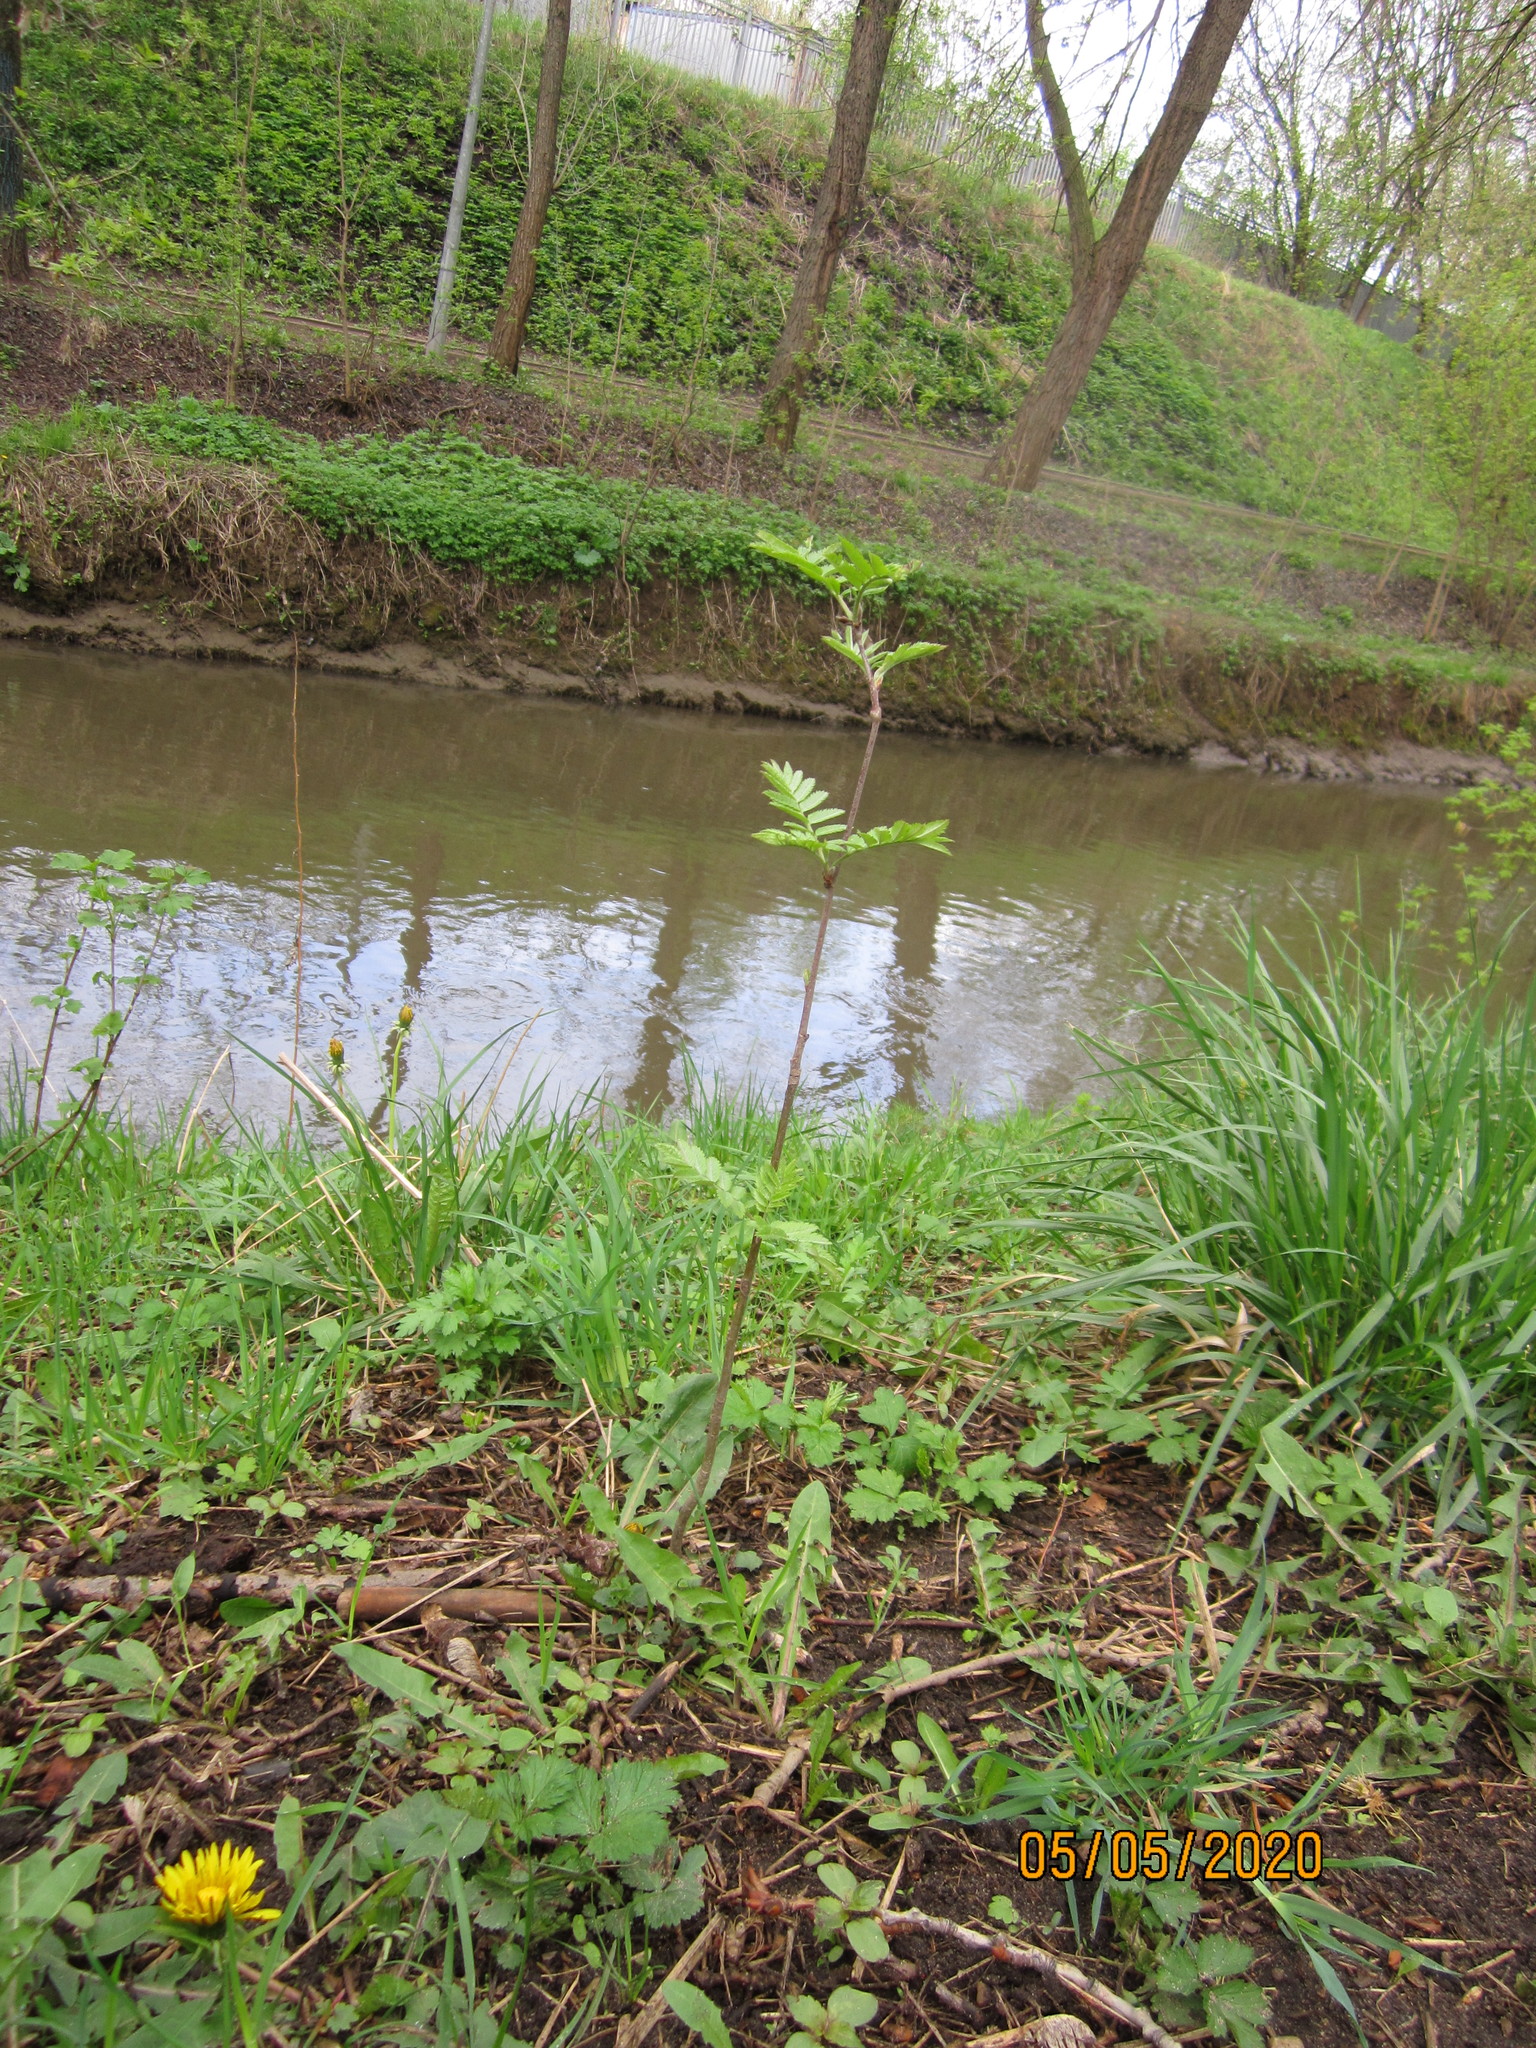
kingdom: Plantae
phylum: Tracheophyta
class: Magnoliopsida
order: Rosales
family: Rosaceae
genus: Sorbus
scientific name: Sorbus aucuparia
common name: Rowan
